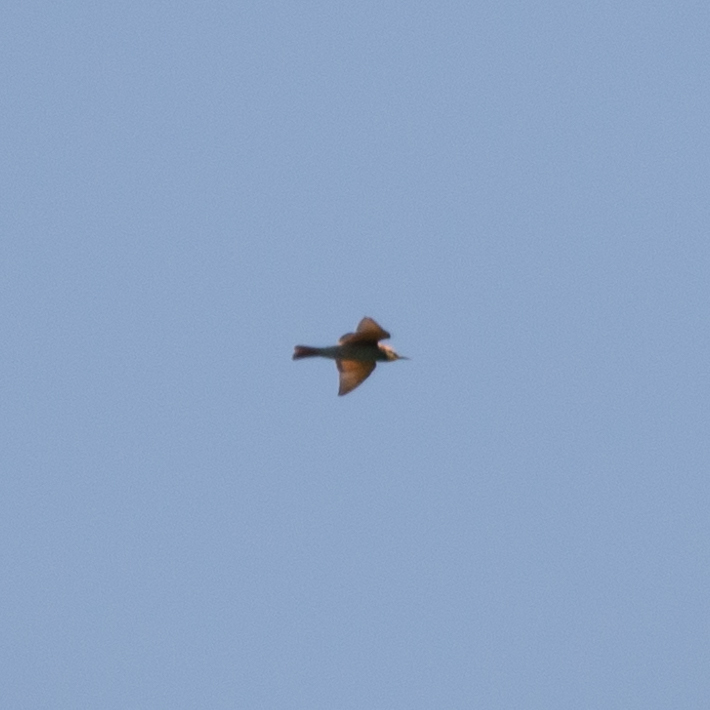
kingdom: Animalia
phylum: Chordata
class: Aves
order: Coraciiformes
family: Meropidae
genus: Merops
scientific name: Merops apiaster
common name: European bee-eater
